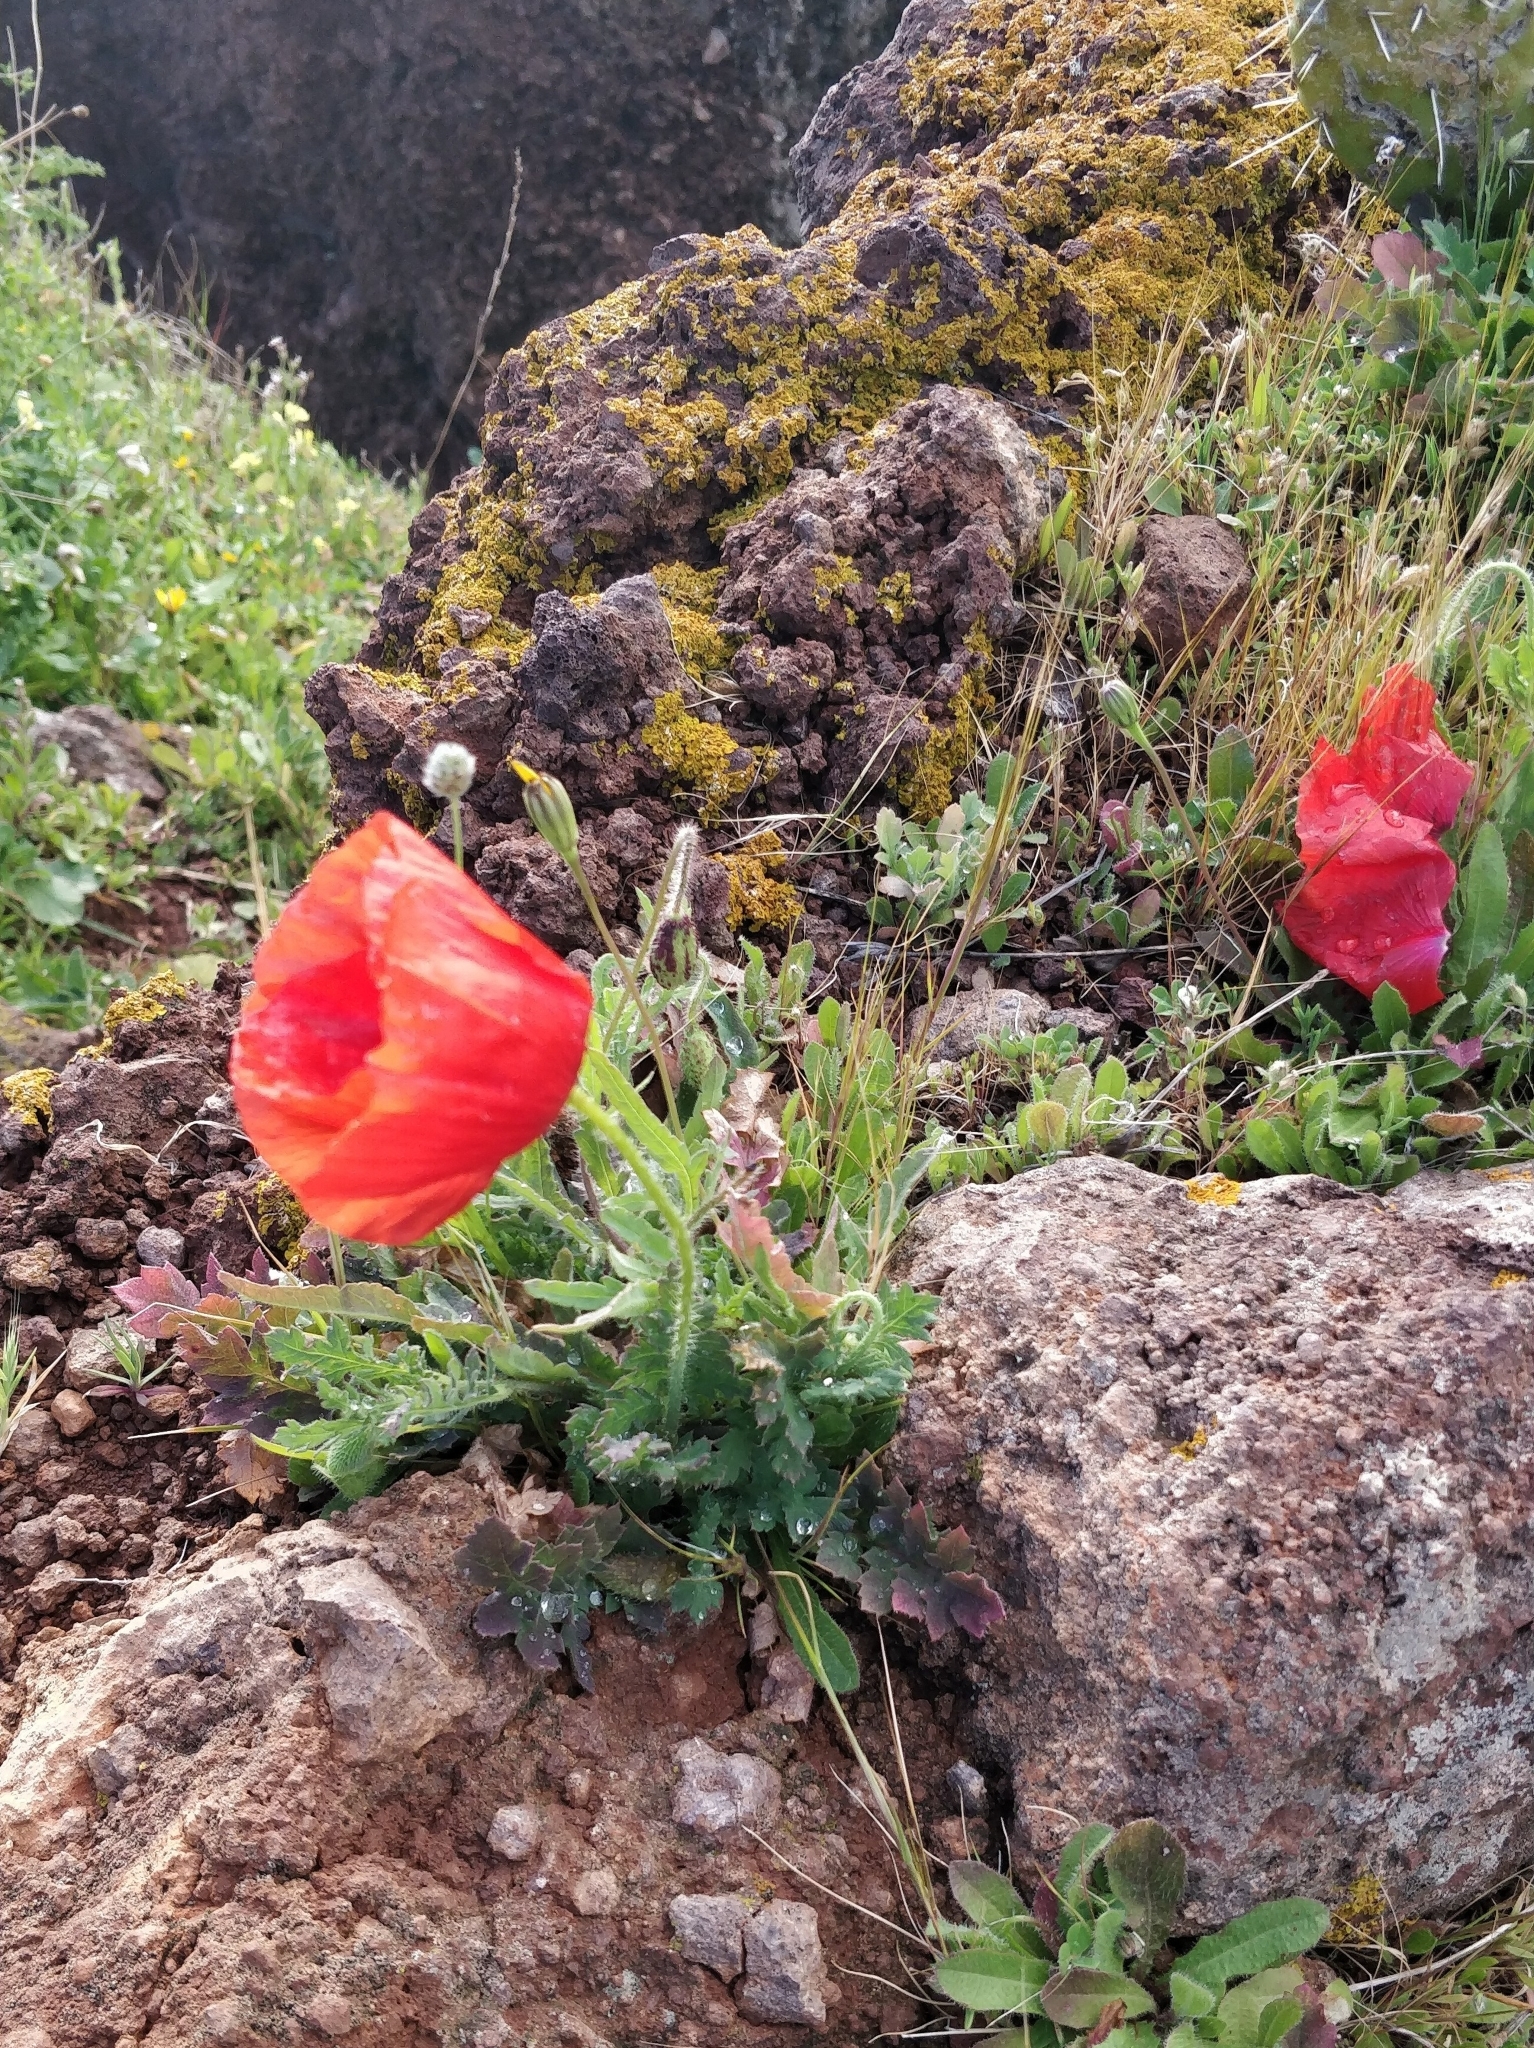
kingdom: Plantae
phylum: Tracheophyta
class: Magnoliopsida
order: Ranunculales
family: Papaveraceae
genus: Papaver
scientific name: Papaver rhoeas
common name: Corn poppy
